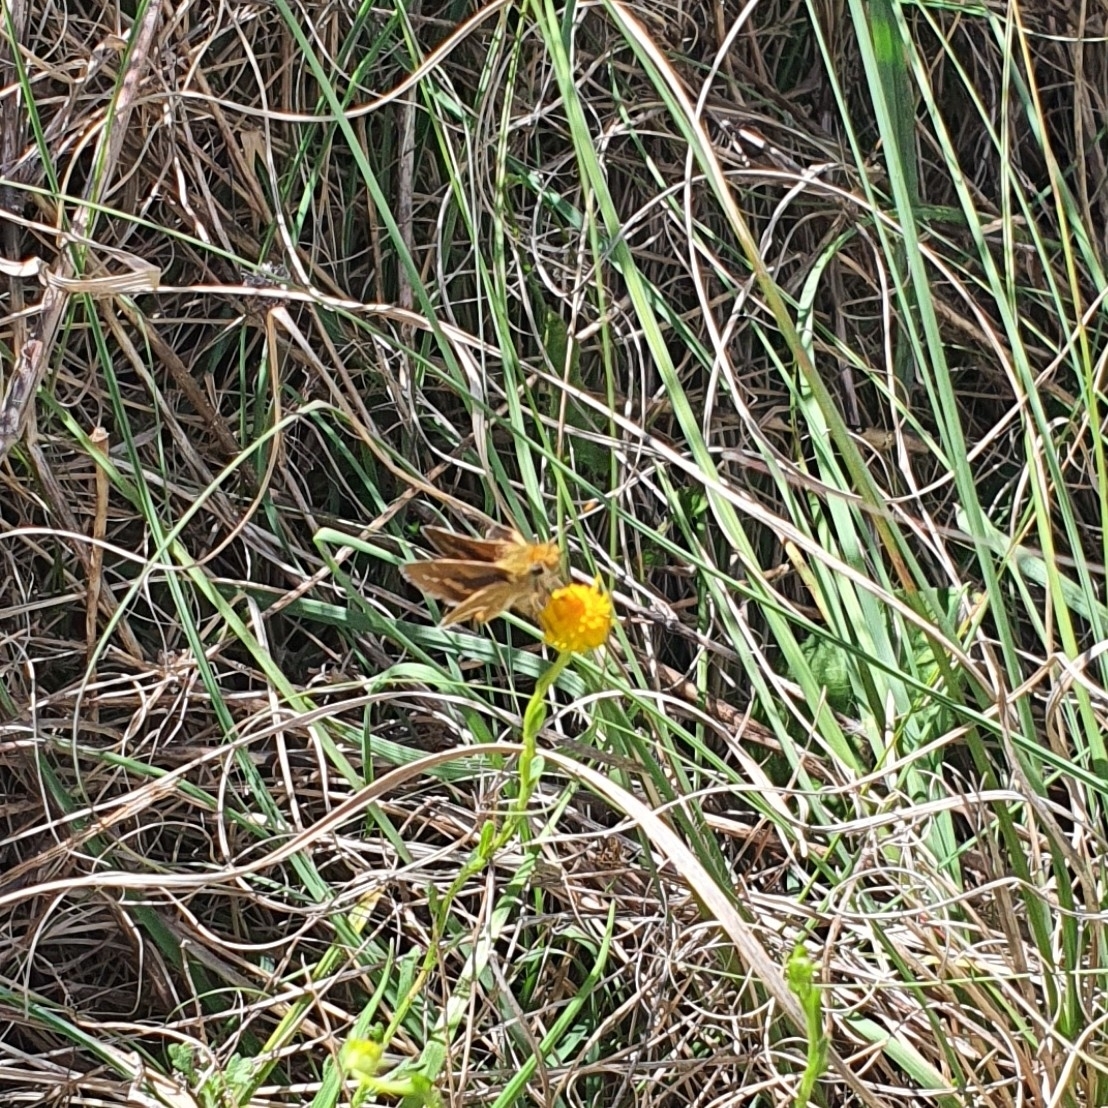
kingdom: Animalia
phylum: Arthropoda
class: Insecta
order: Lepidoptera
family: Hesperiidae
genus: Taractrocera
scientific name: Taractrocera papyria
